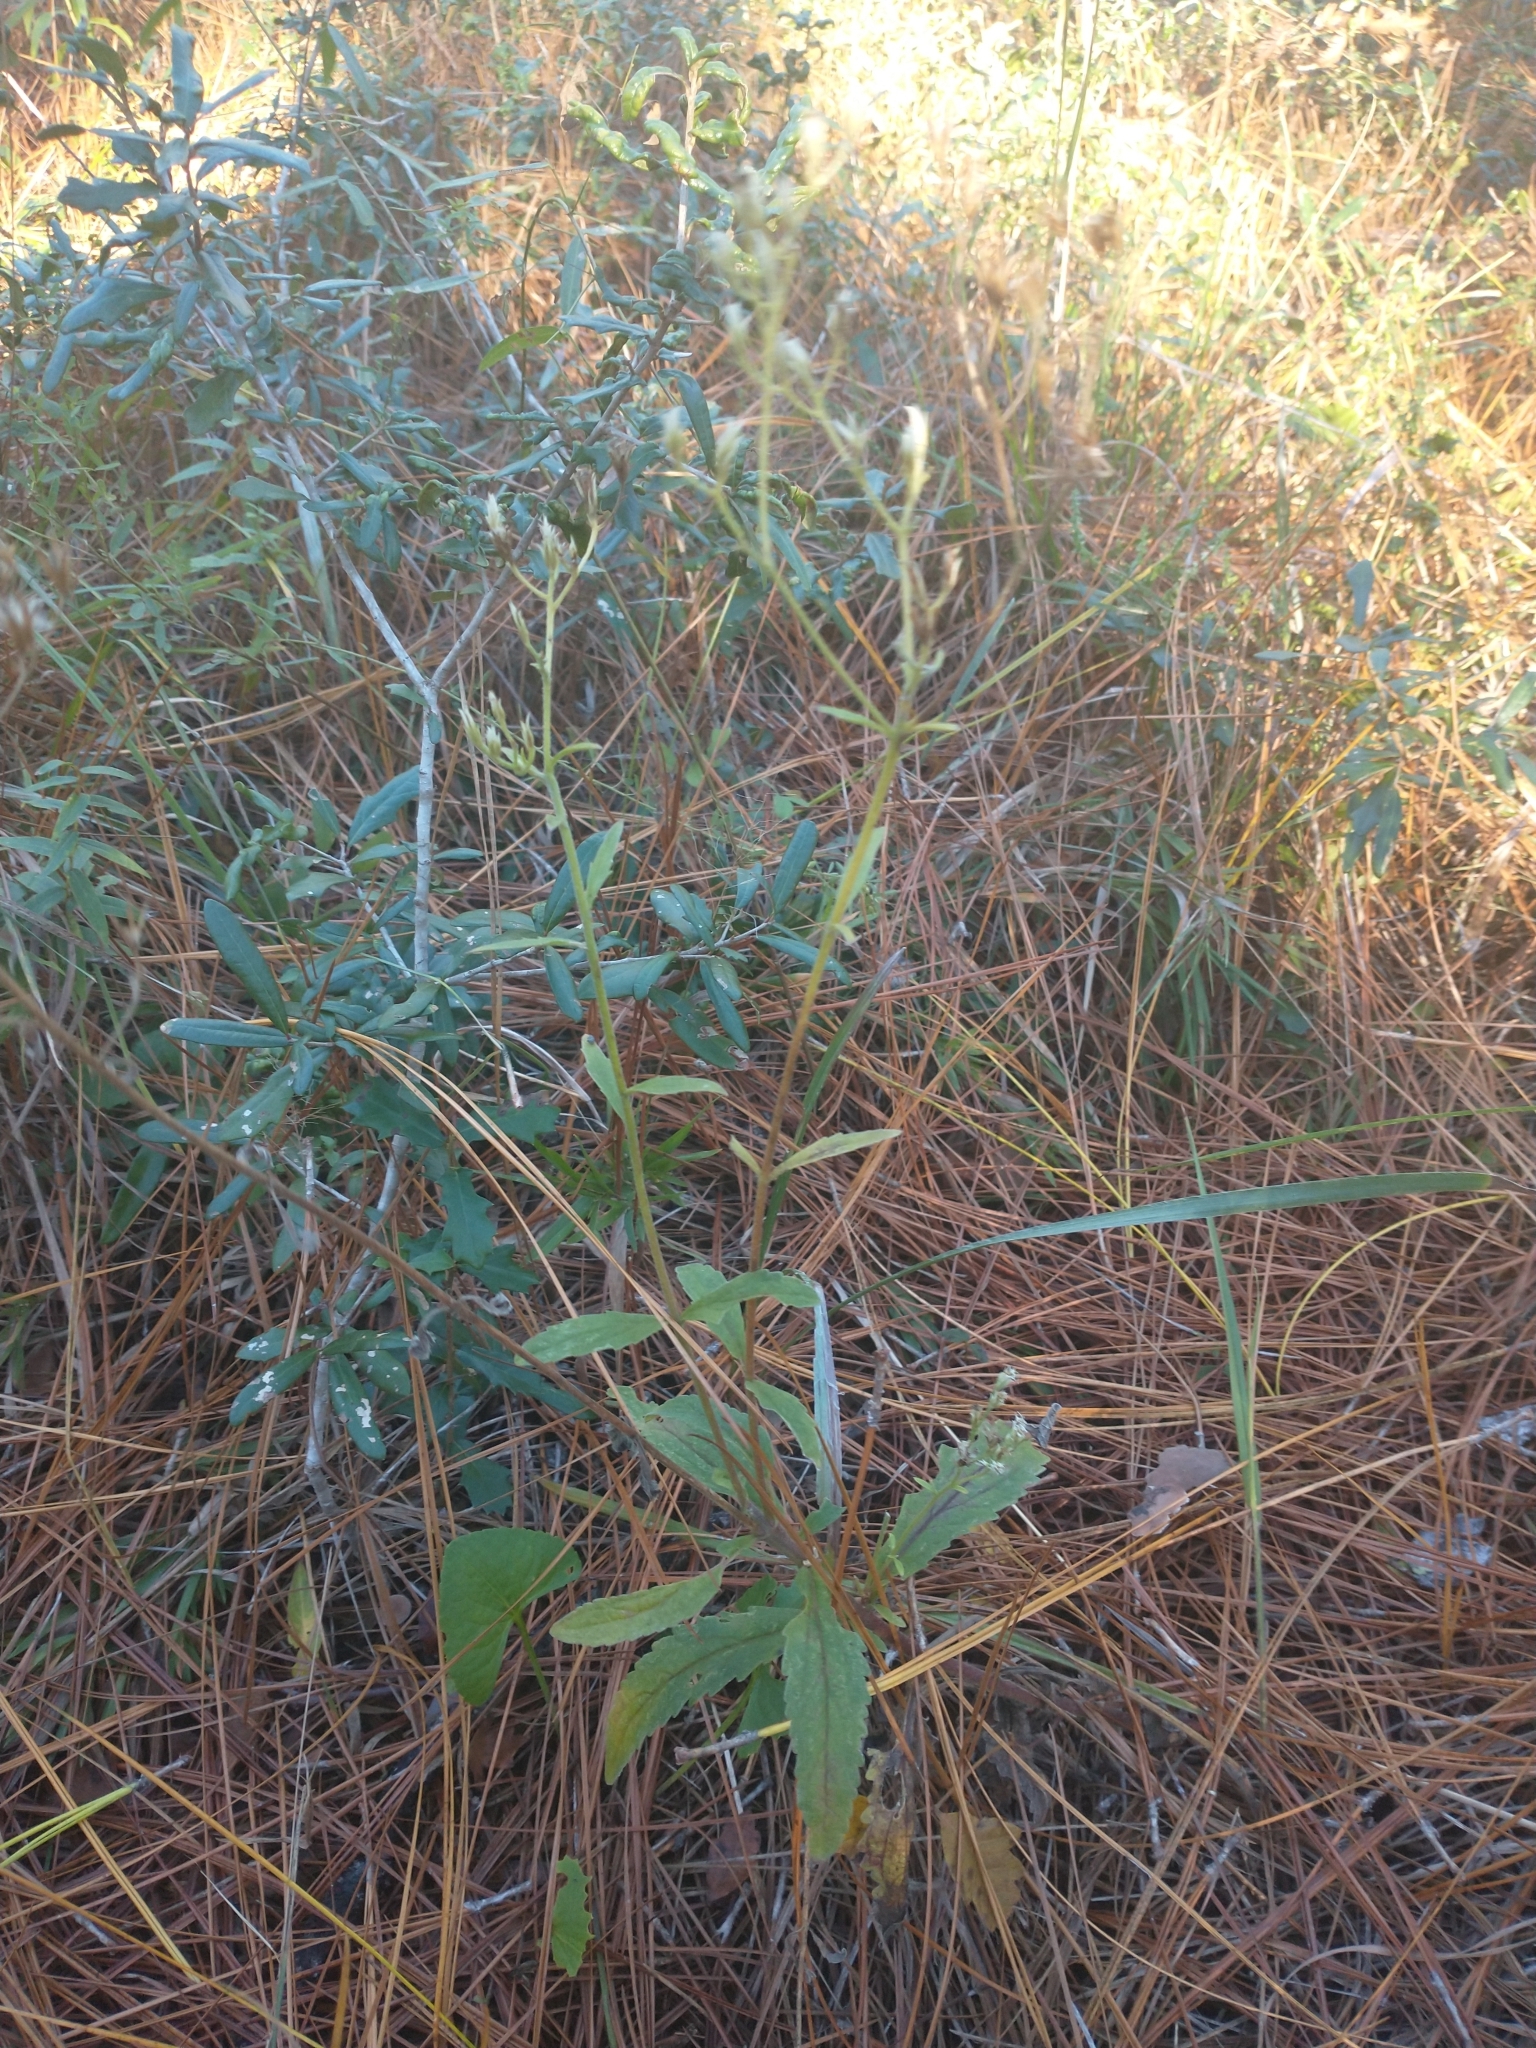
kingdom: Plantae
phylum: Tracheophyta
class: Magnoliopsida
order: Asterales
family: Asteraceae
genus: Eupatorium
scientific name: Eupatorium album
